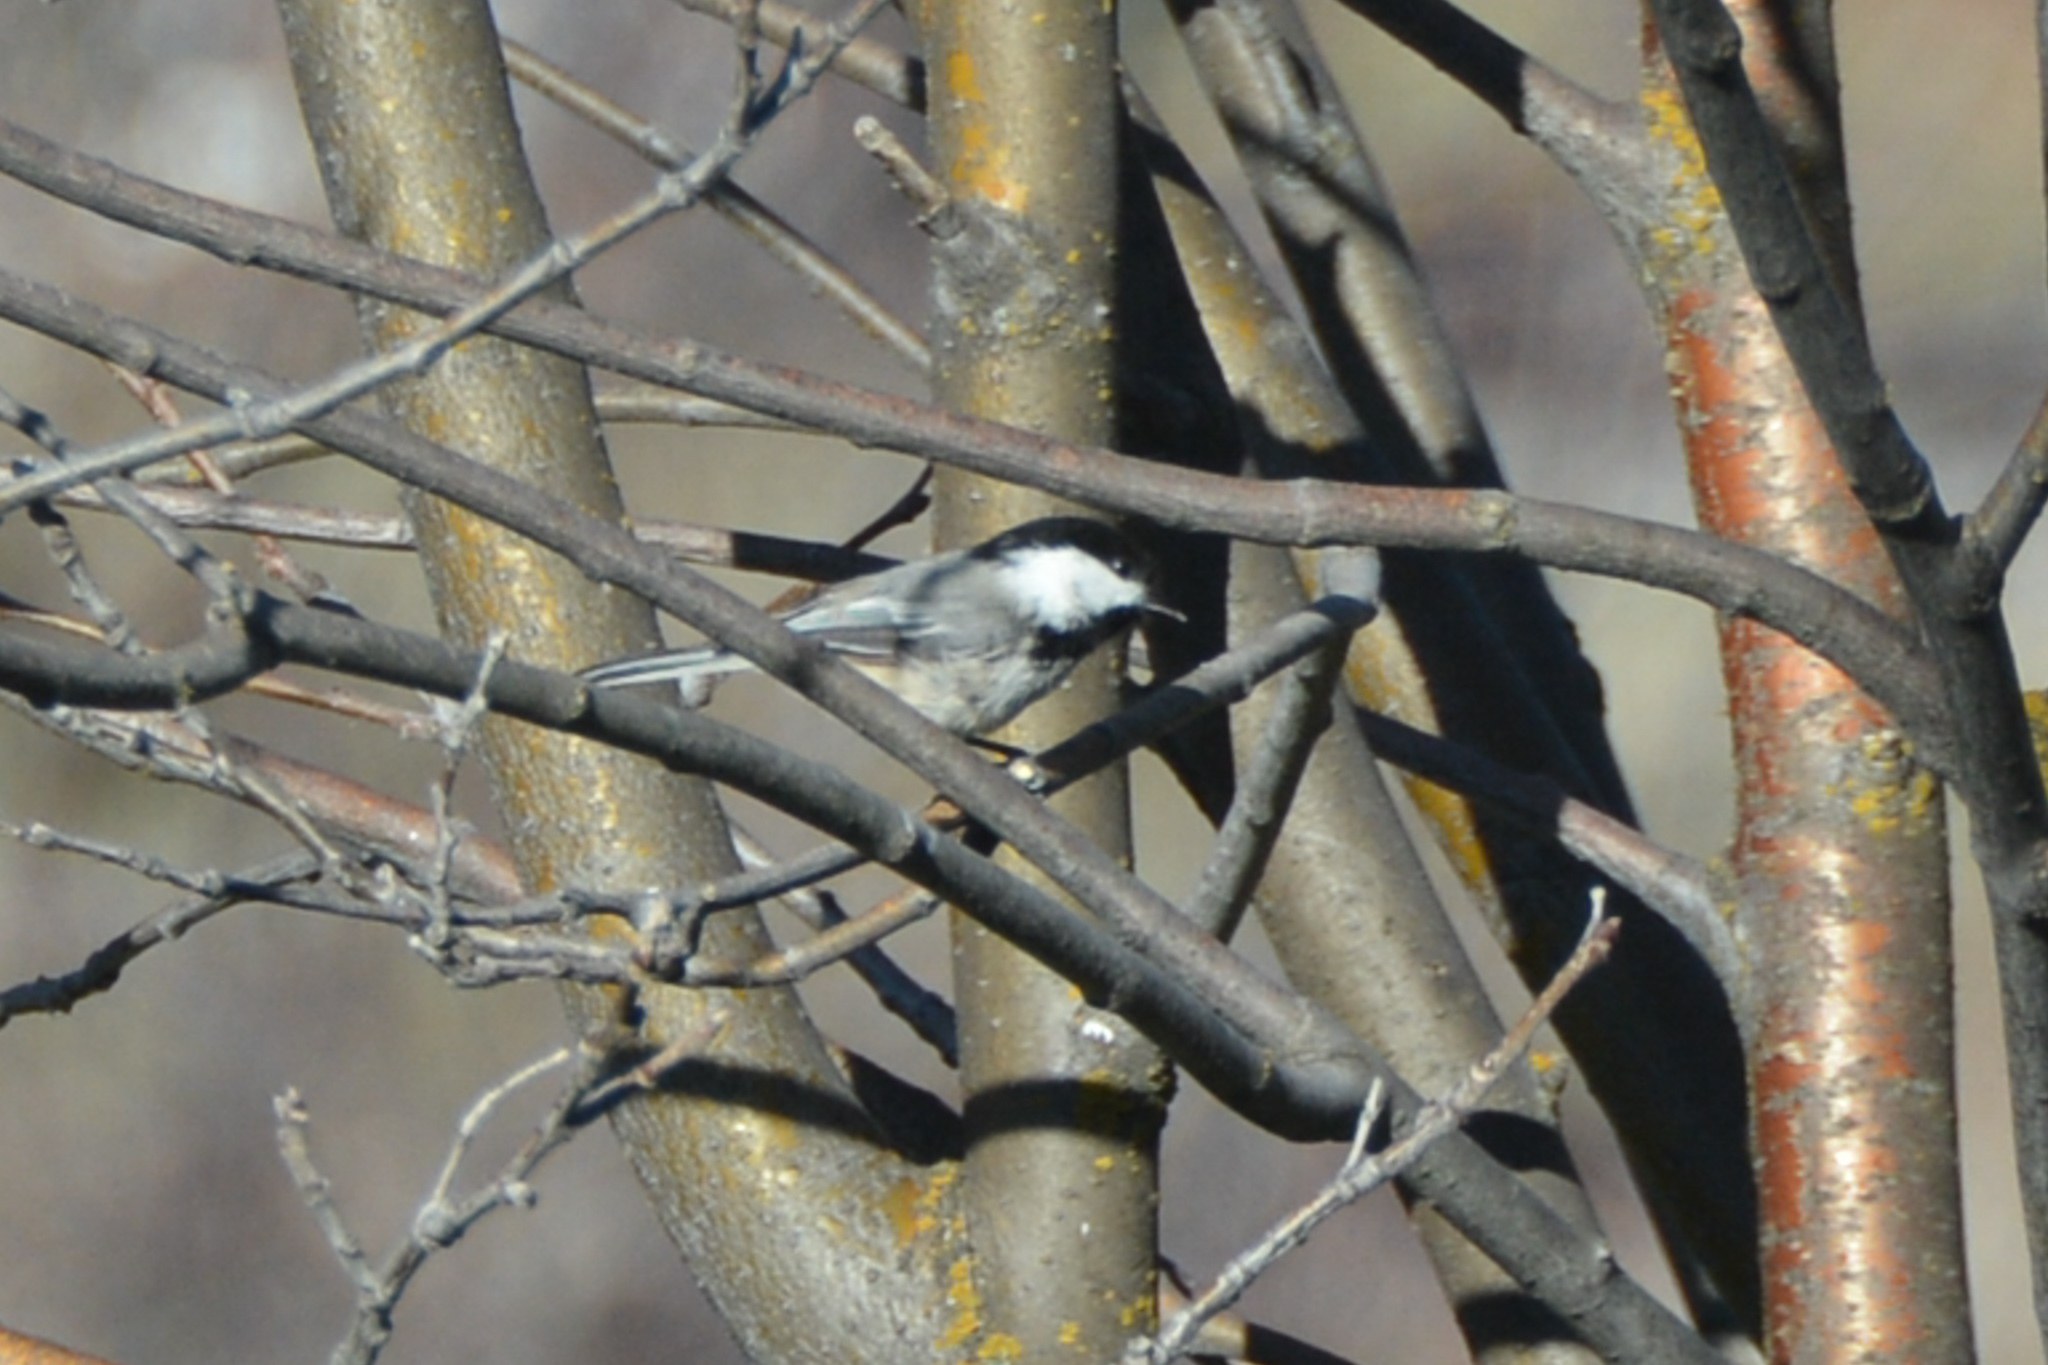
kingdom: Animalia
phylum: Chordata
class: Aves
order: Passeriformes
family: Paridae
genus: Poecile
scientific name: Poecile atricapillus
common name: Black-capped chickadee
